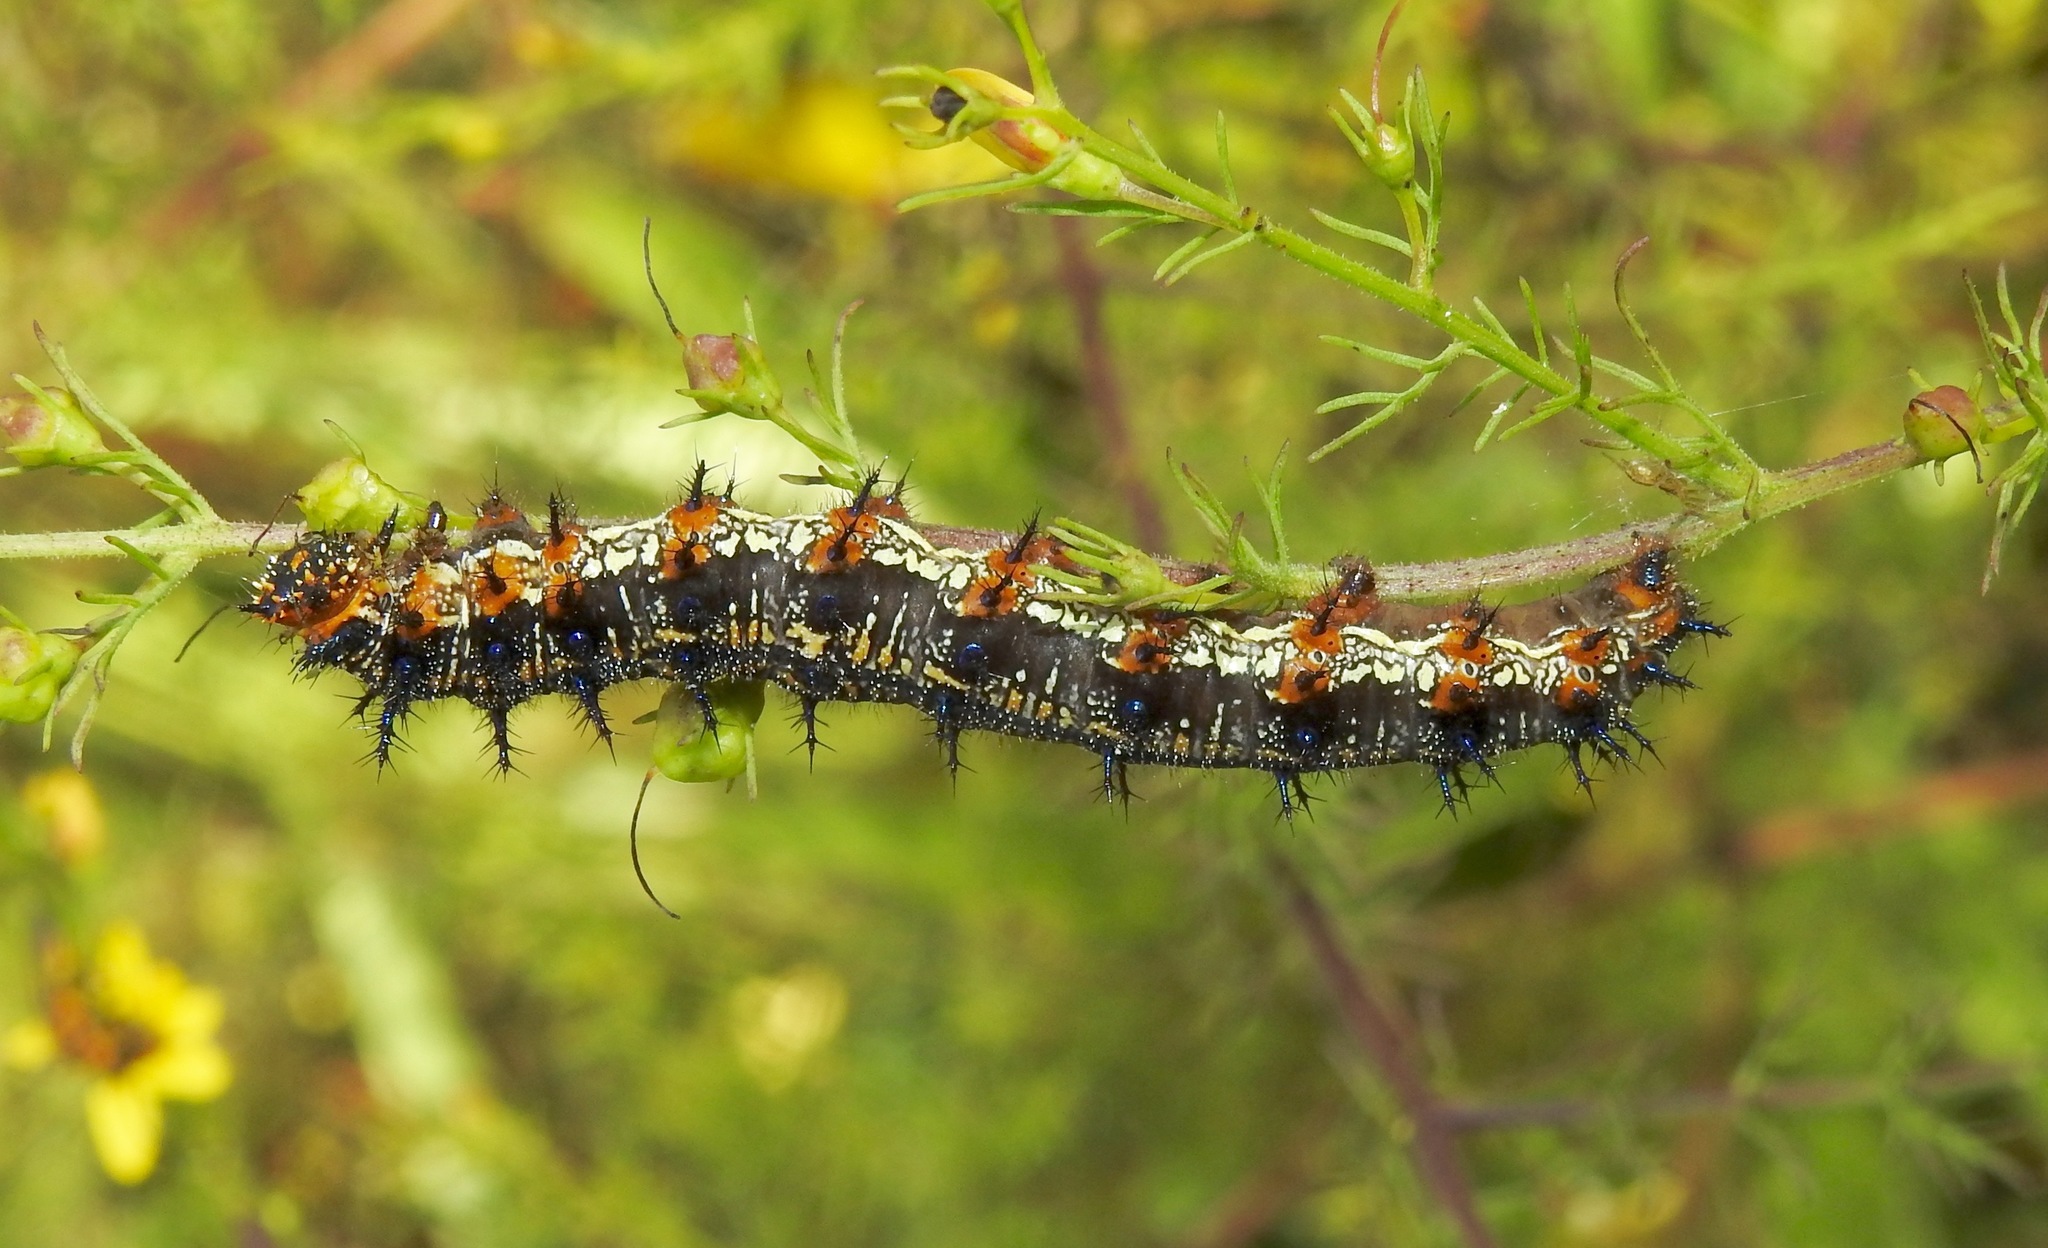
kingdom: Animalia
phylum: Arthropoda
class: Insecta
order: Lepidoptera
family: Nymphalidae
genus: Junonia
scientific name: Junonia coenia
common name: Common buckeye
